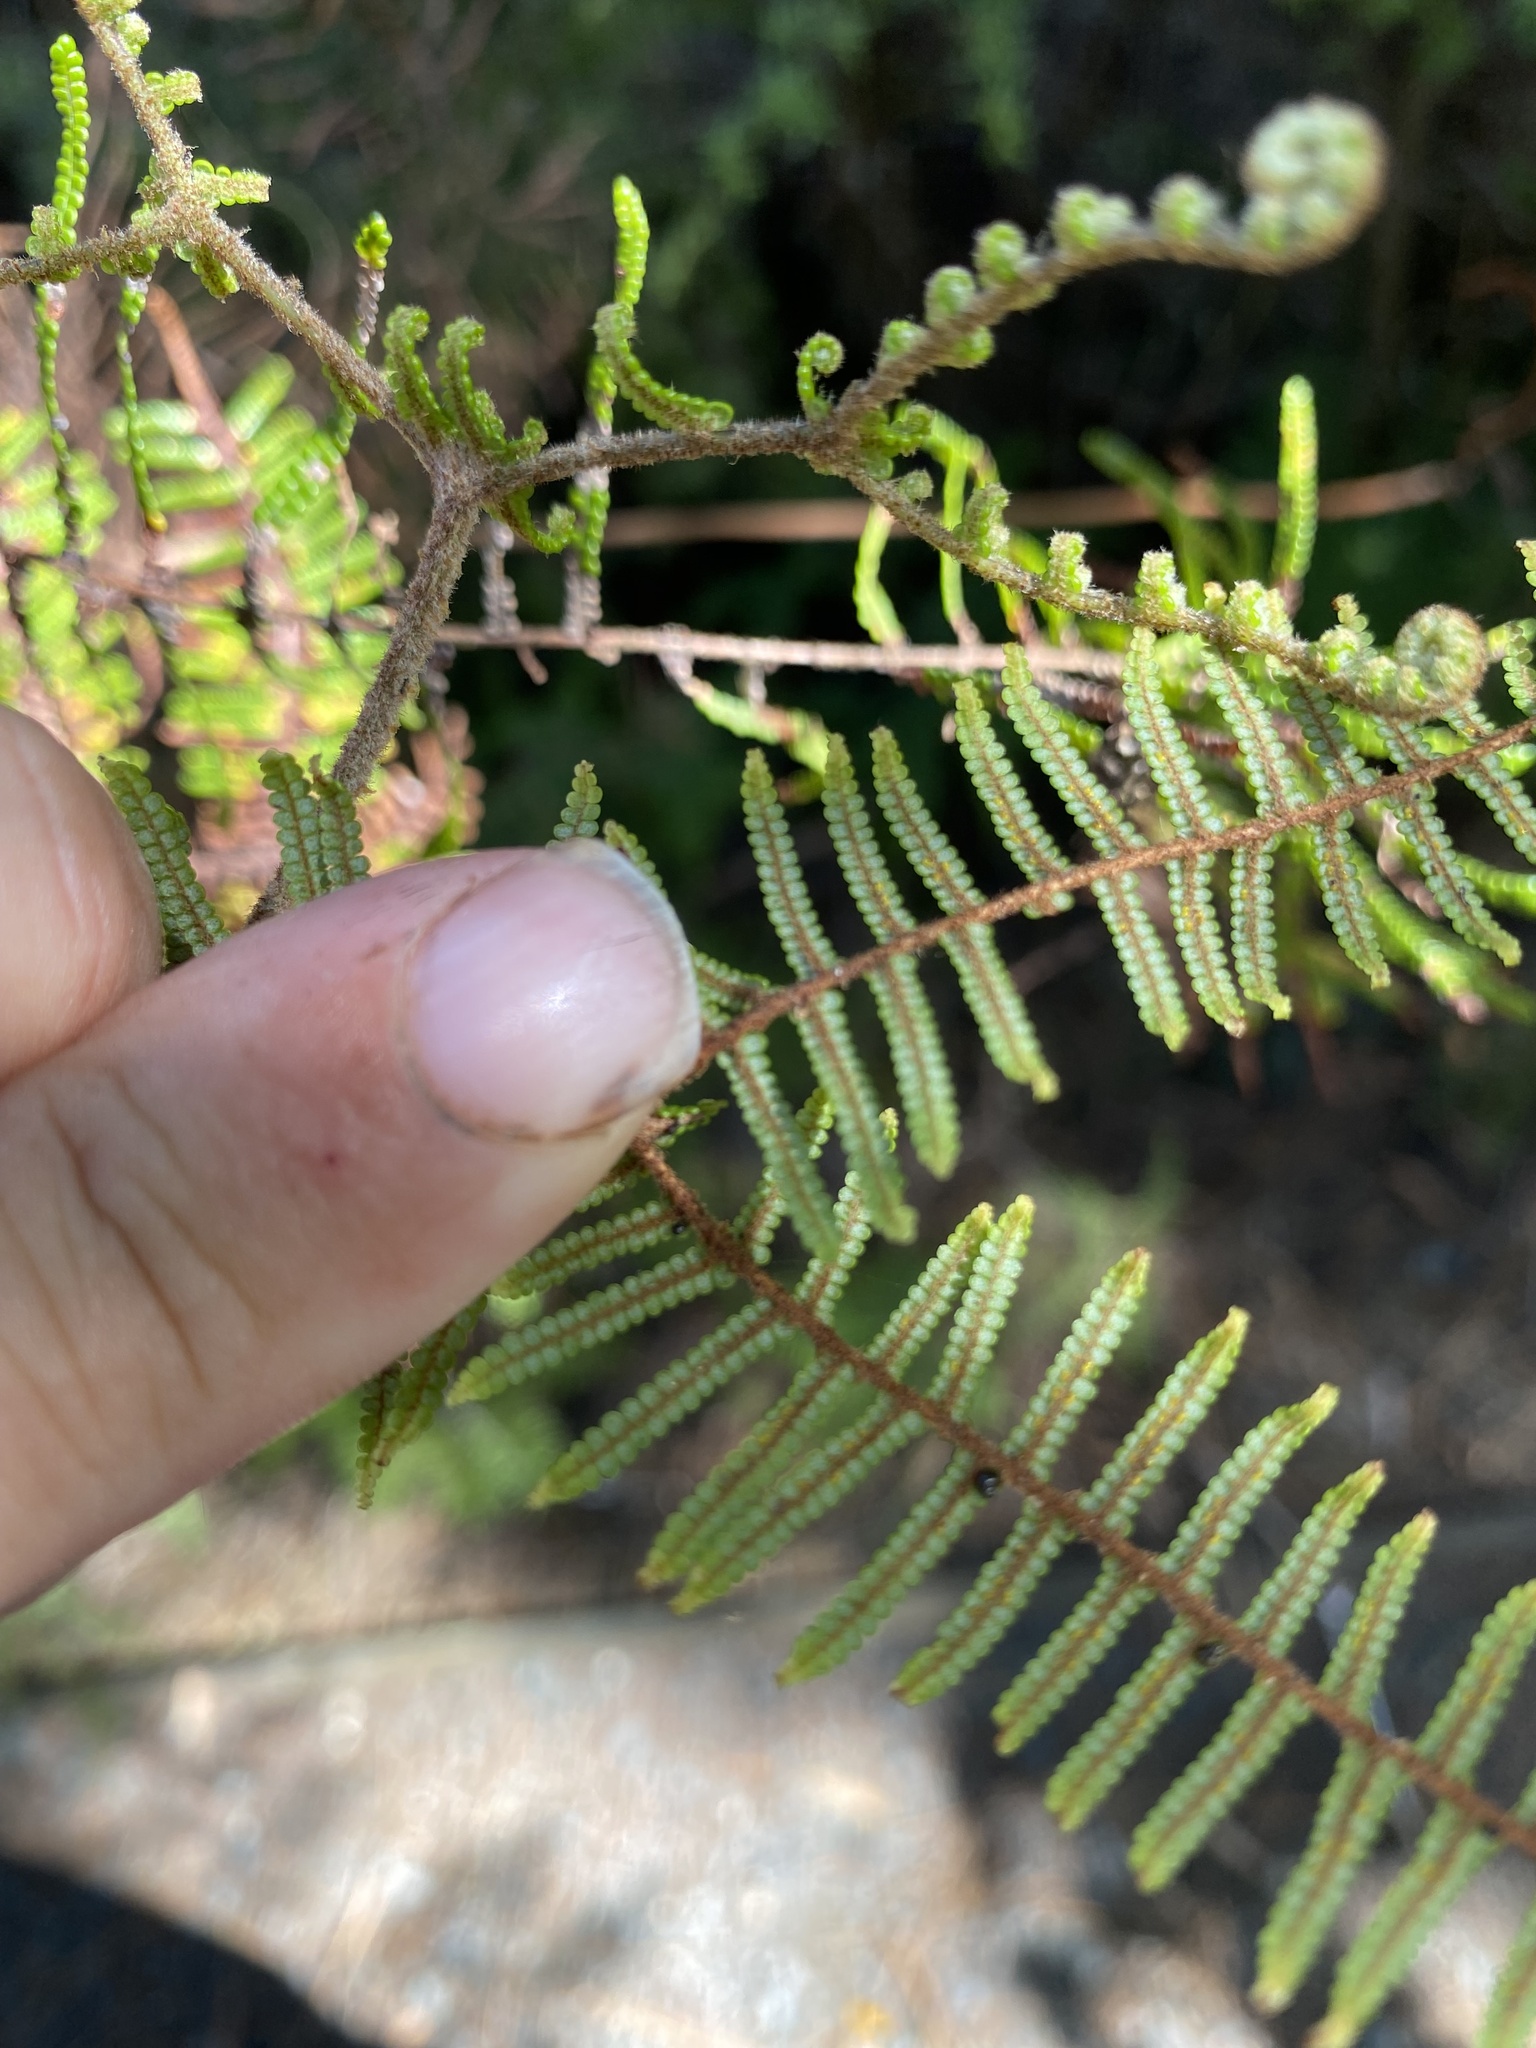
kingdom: Plantae
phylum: Tracheophyta
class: Polypodiopsida
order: Gleicheniales
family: Gleicheniaceae
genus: Gleichenia
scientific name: Gleichenia dicarpa
